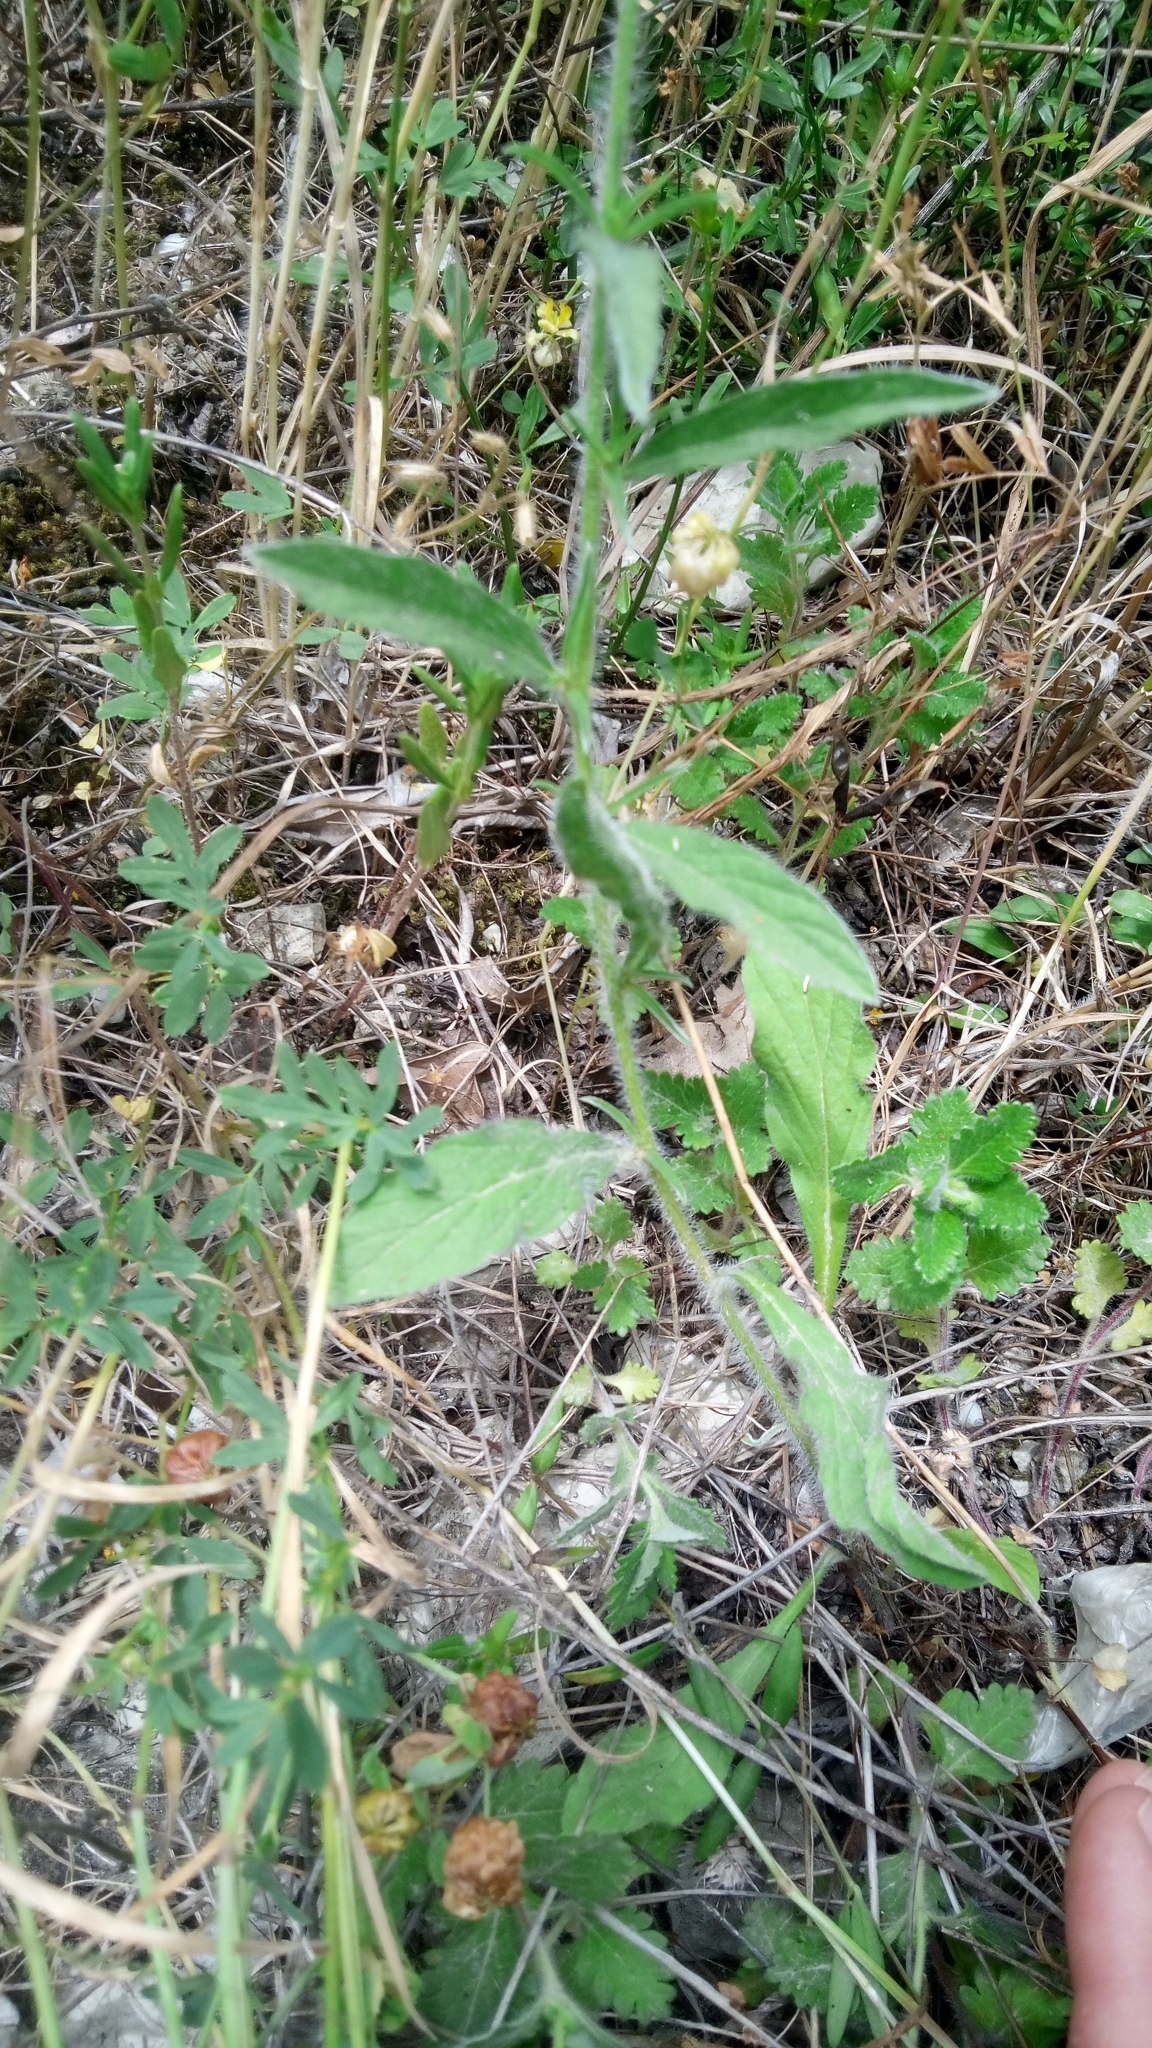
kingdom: Plantae
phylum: Tracheophyta
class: Magnoliopsida
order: Solanales
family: Convolvulaceae
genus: Convolvulus
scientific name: Convolvulus cantabrica
